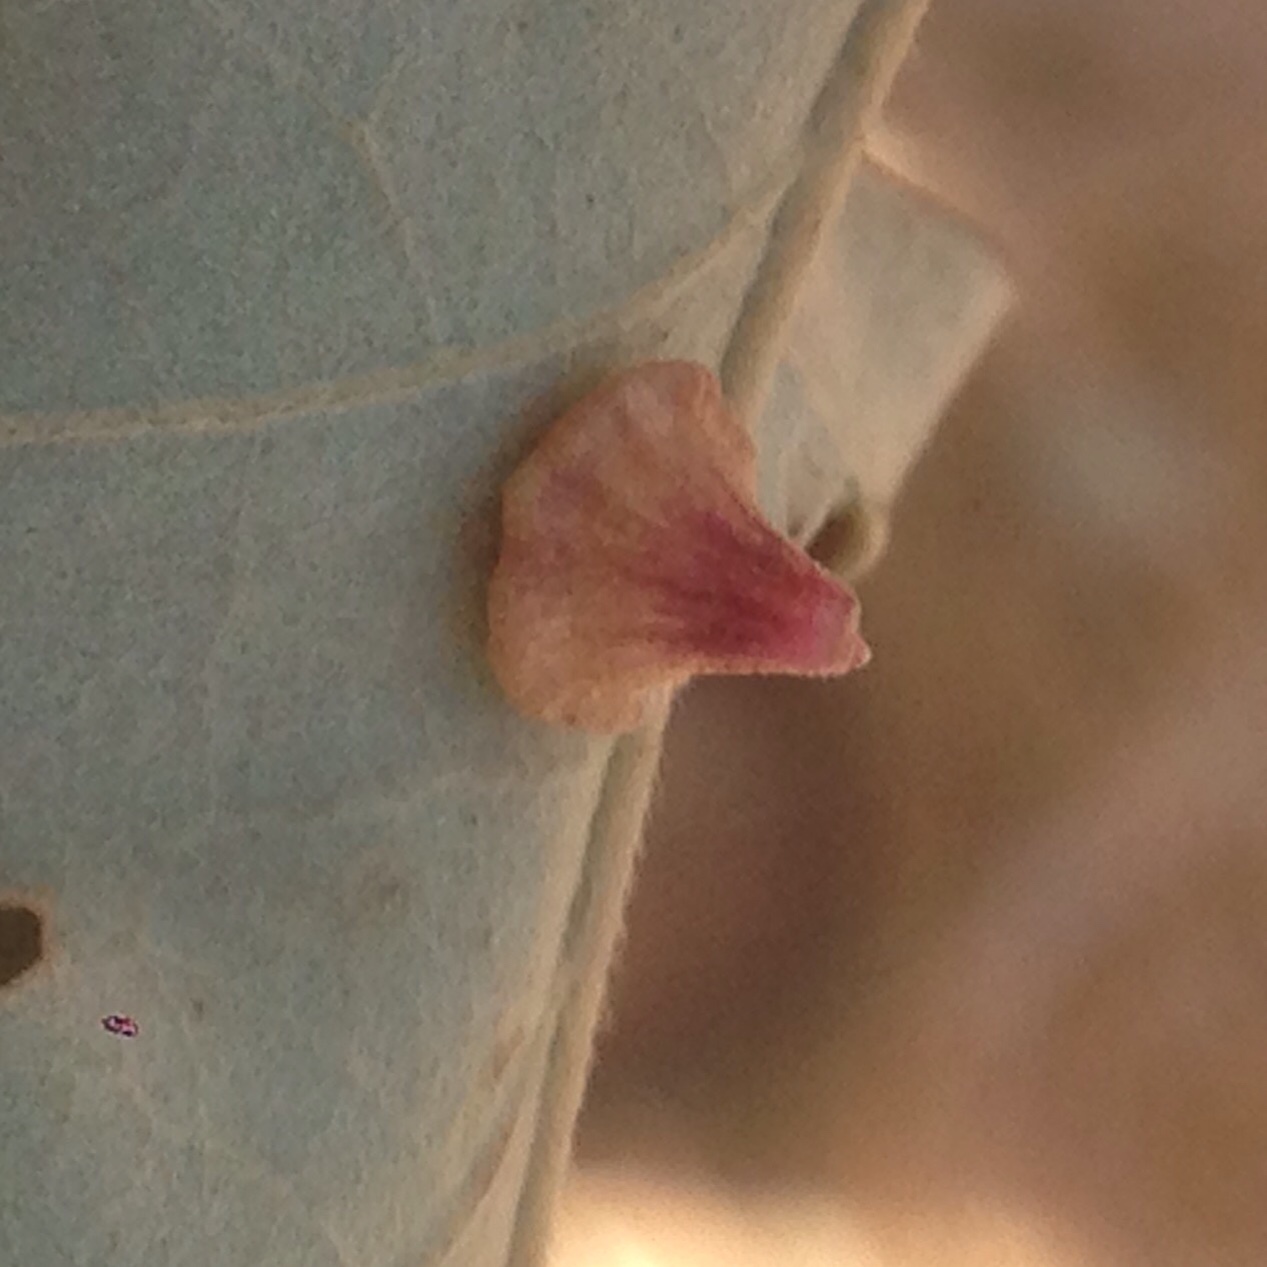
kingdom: Animalia
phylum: Arthropoda
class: Insecta
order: Hymenoptera
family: Cynipidae
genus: Andricus
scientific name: Andricus
